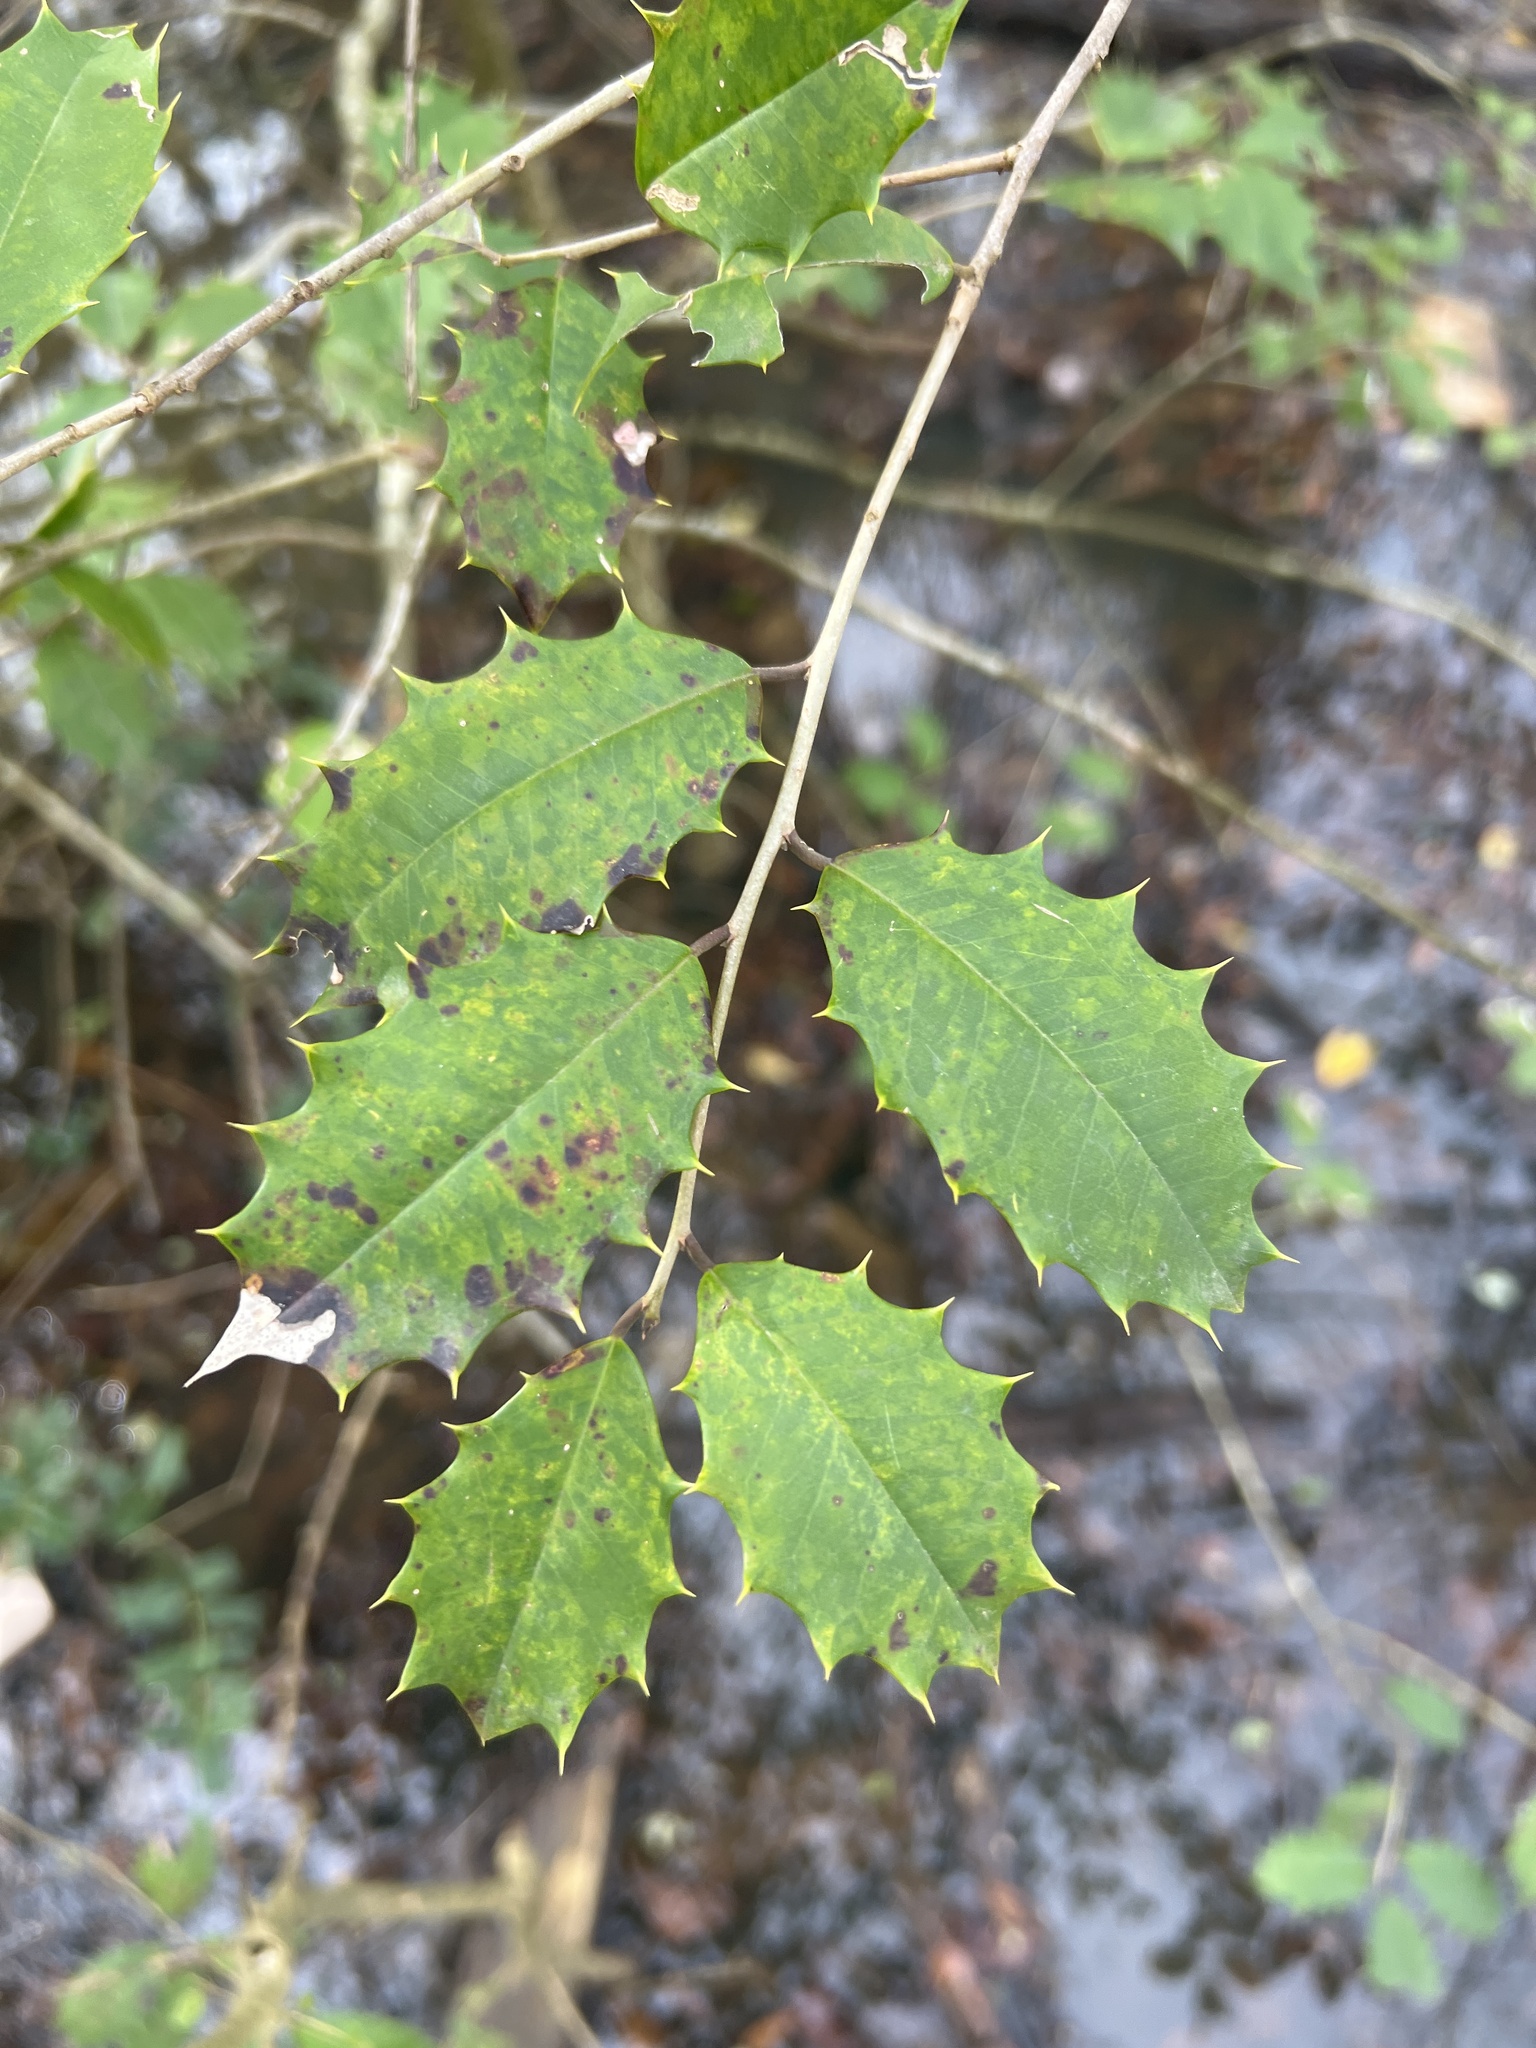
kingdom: Plantae
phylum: Tracheophyta
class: Magnoliopsida
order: Aquifoliales
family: Aquifoliaceae
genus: Ilex
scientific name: Ilex opaca
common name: American holly
